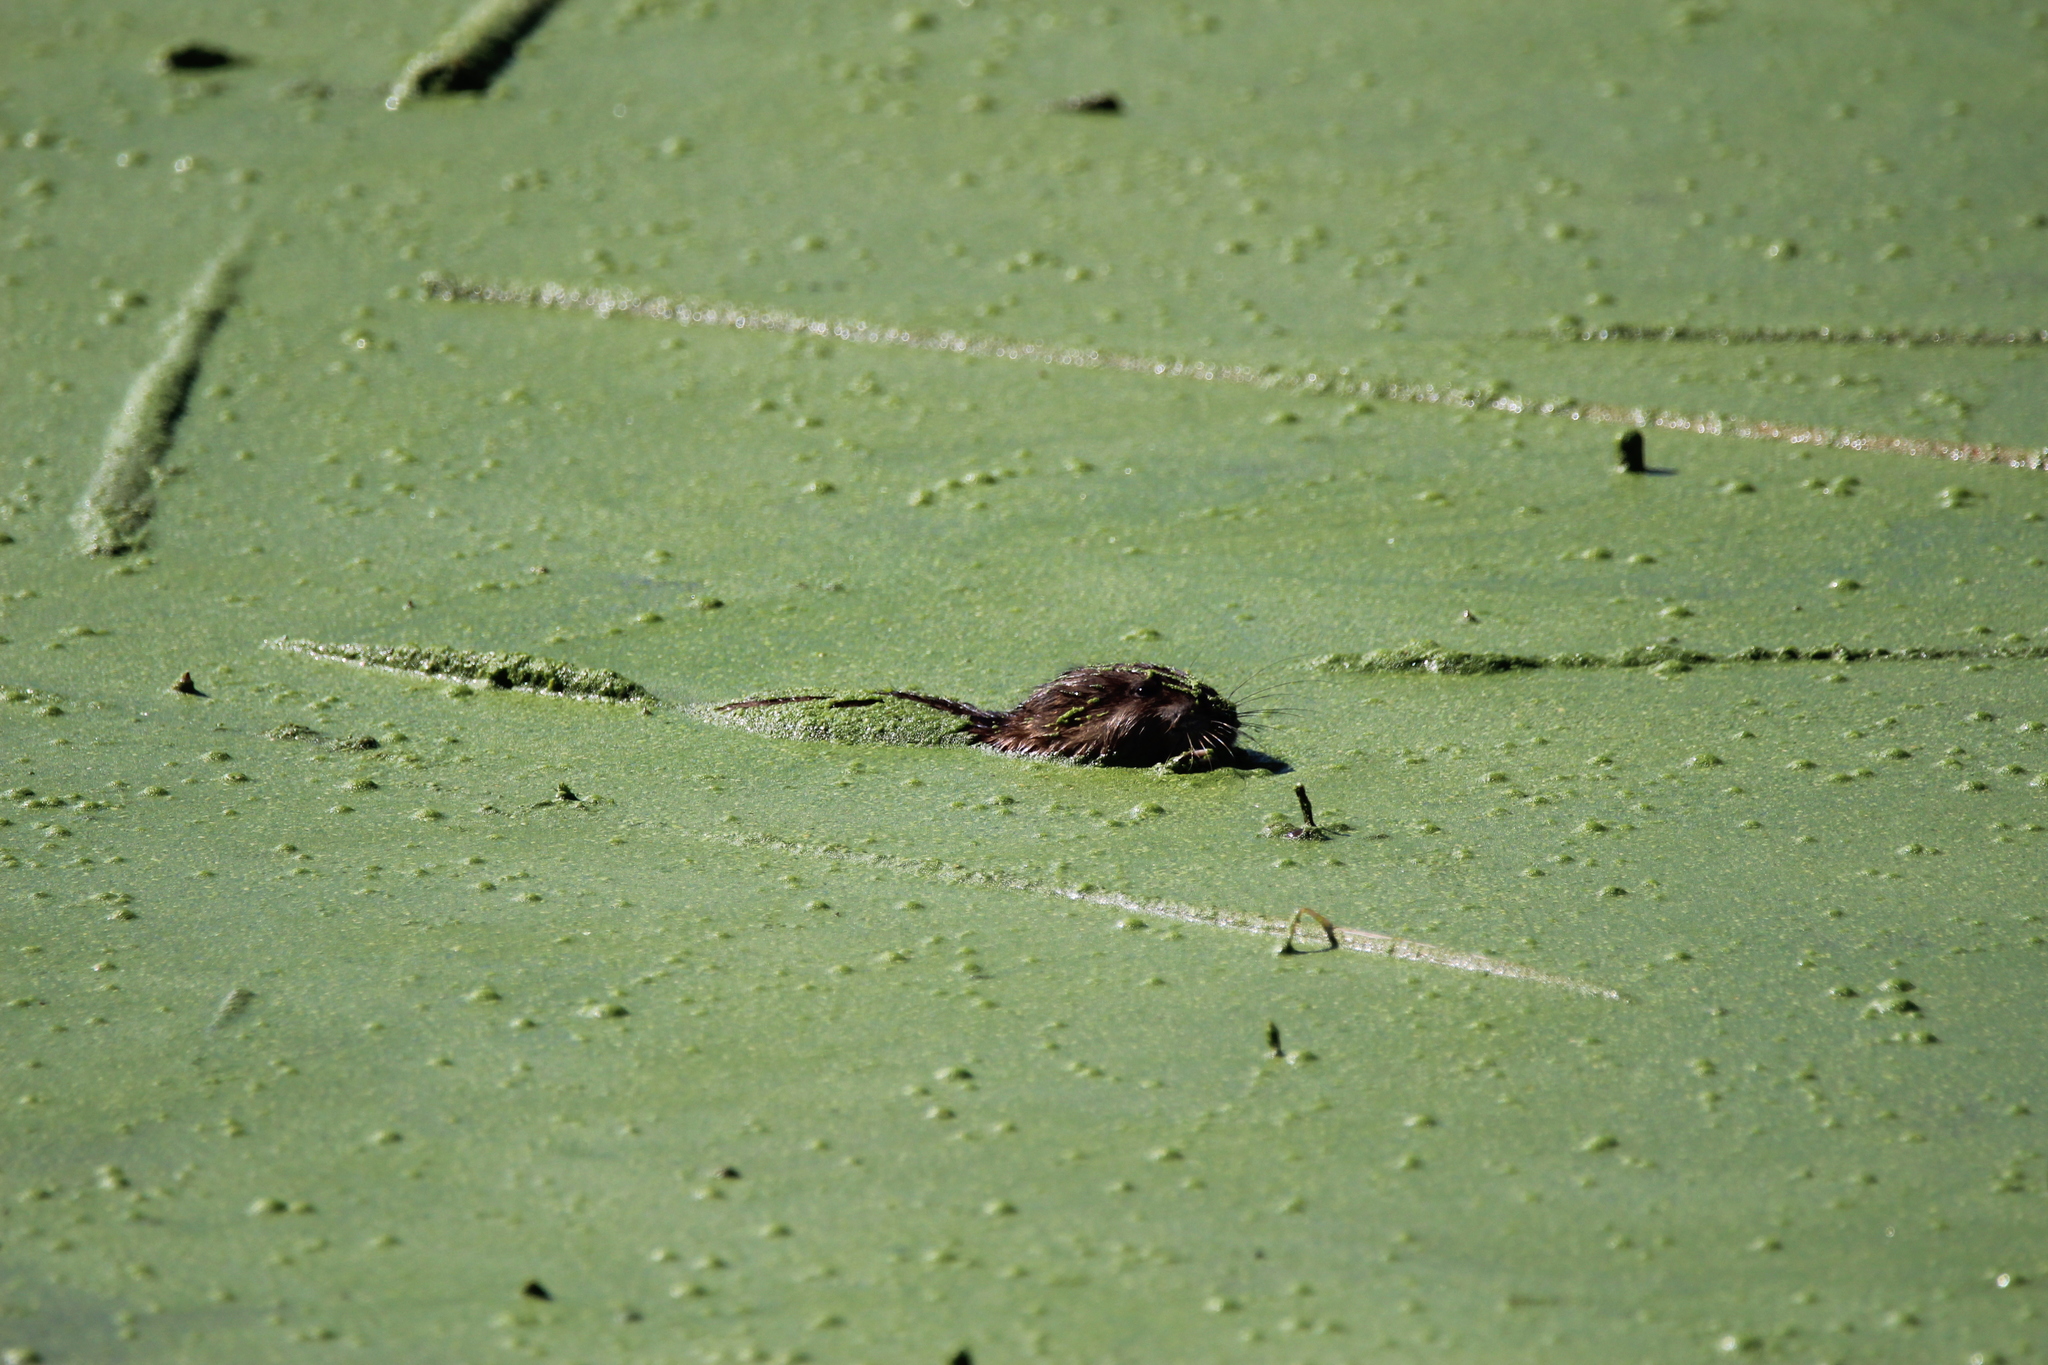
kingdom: Animalia
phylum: Chordata
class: Mammalia
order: Rodentia
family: Cricetidae
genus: Ondatra
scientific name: Ondatra zibethicus
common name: Muskrat
